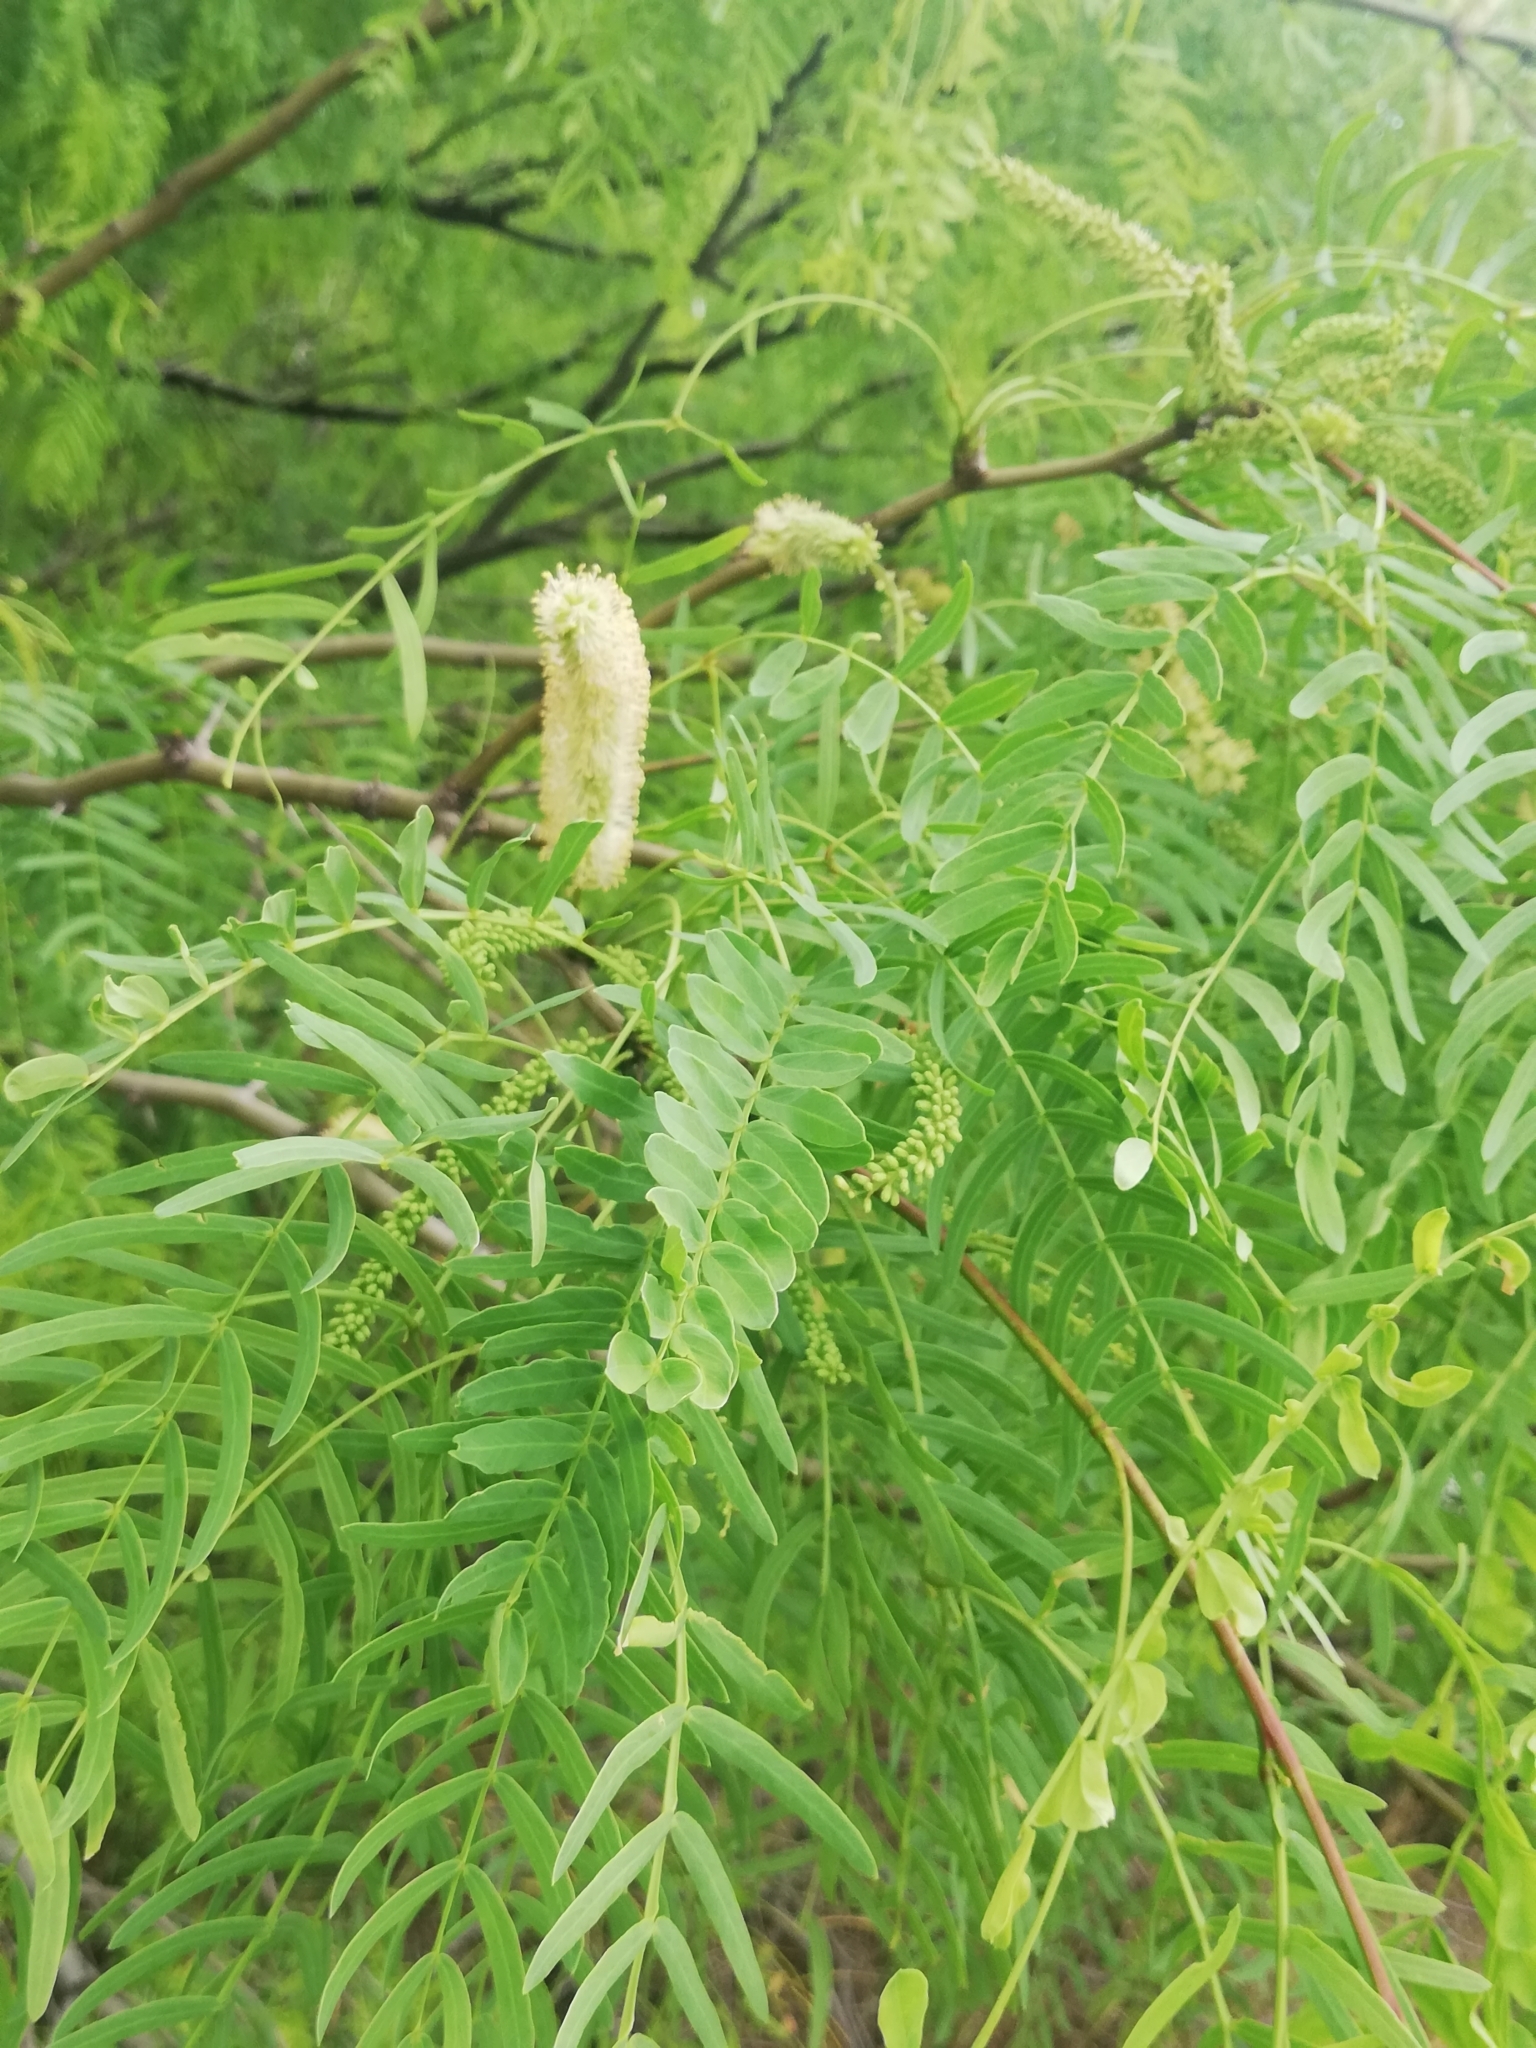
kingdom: Plantae
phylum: Tracheophyta
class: Magnoliopsida
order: Fabales
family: Fabaceae
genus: Prosopis
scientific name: Prosopis glandulosa
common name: Honey mesquite
